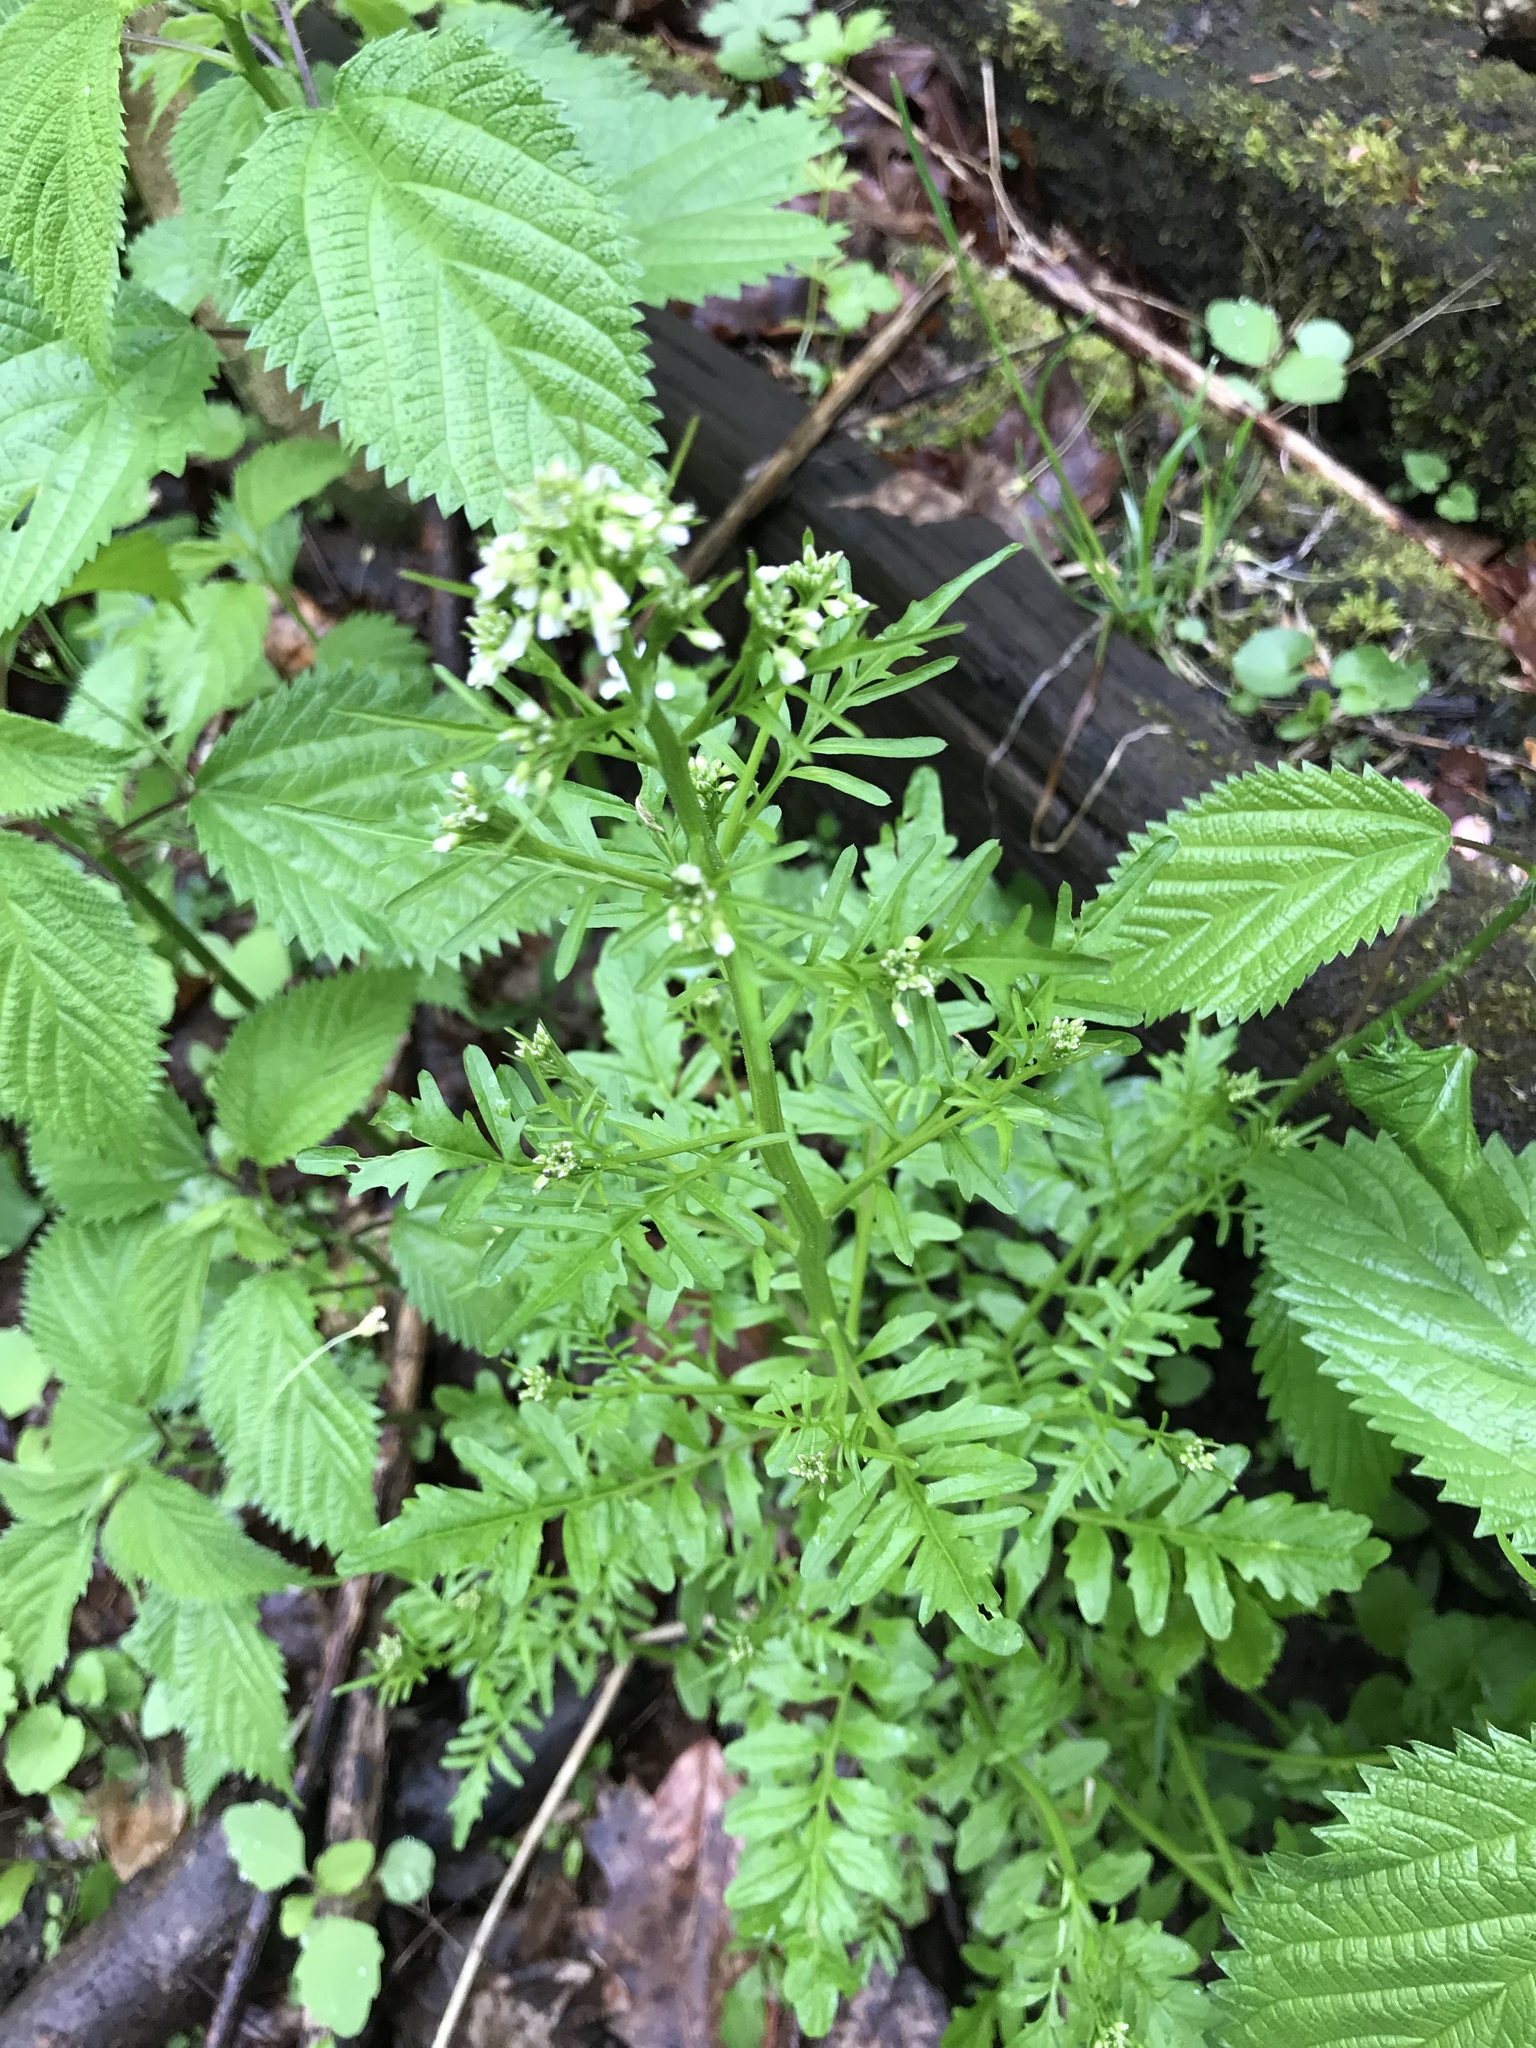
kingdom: Plantae
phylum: Tracheophyta
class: Magnoliopsida
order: Brassicales
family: Brassicaceae
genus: Cardamine
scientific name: Cardamine impatiens
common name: Narrow-leaved bitter-cress
